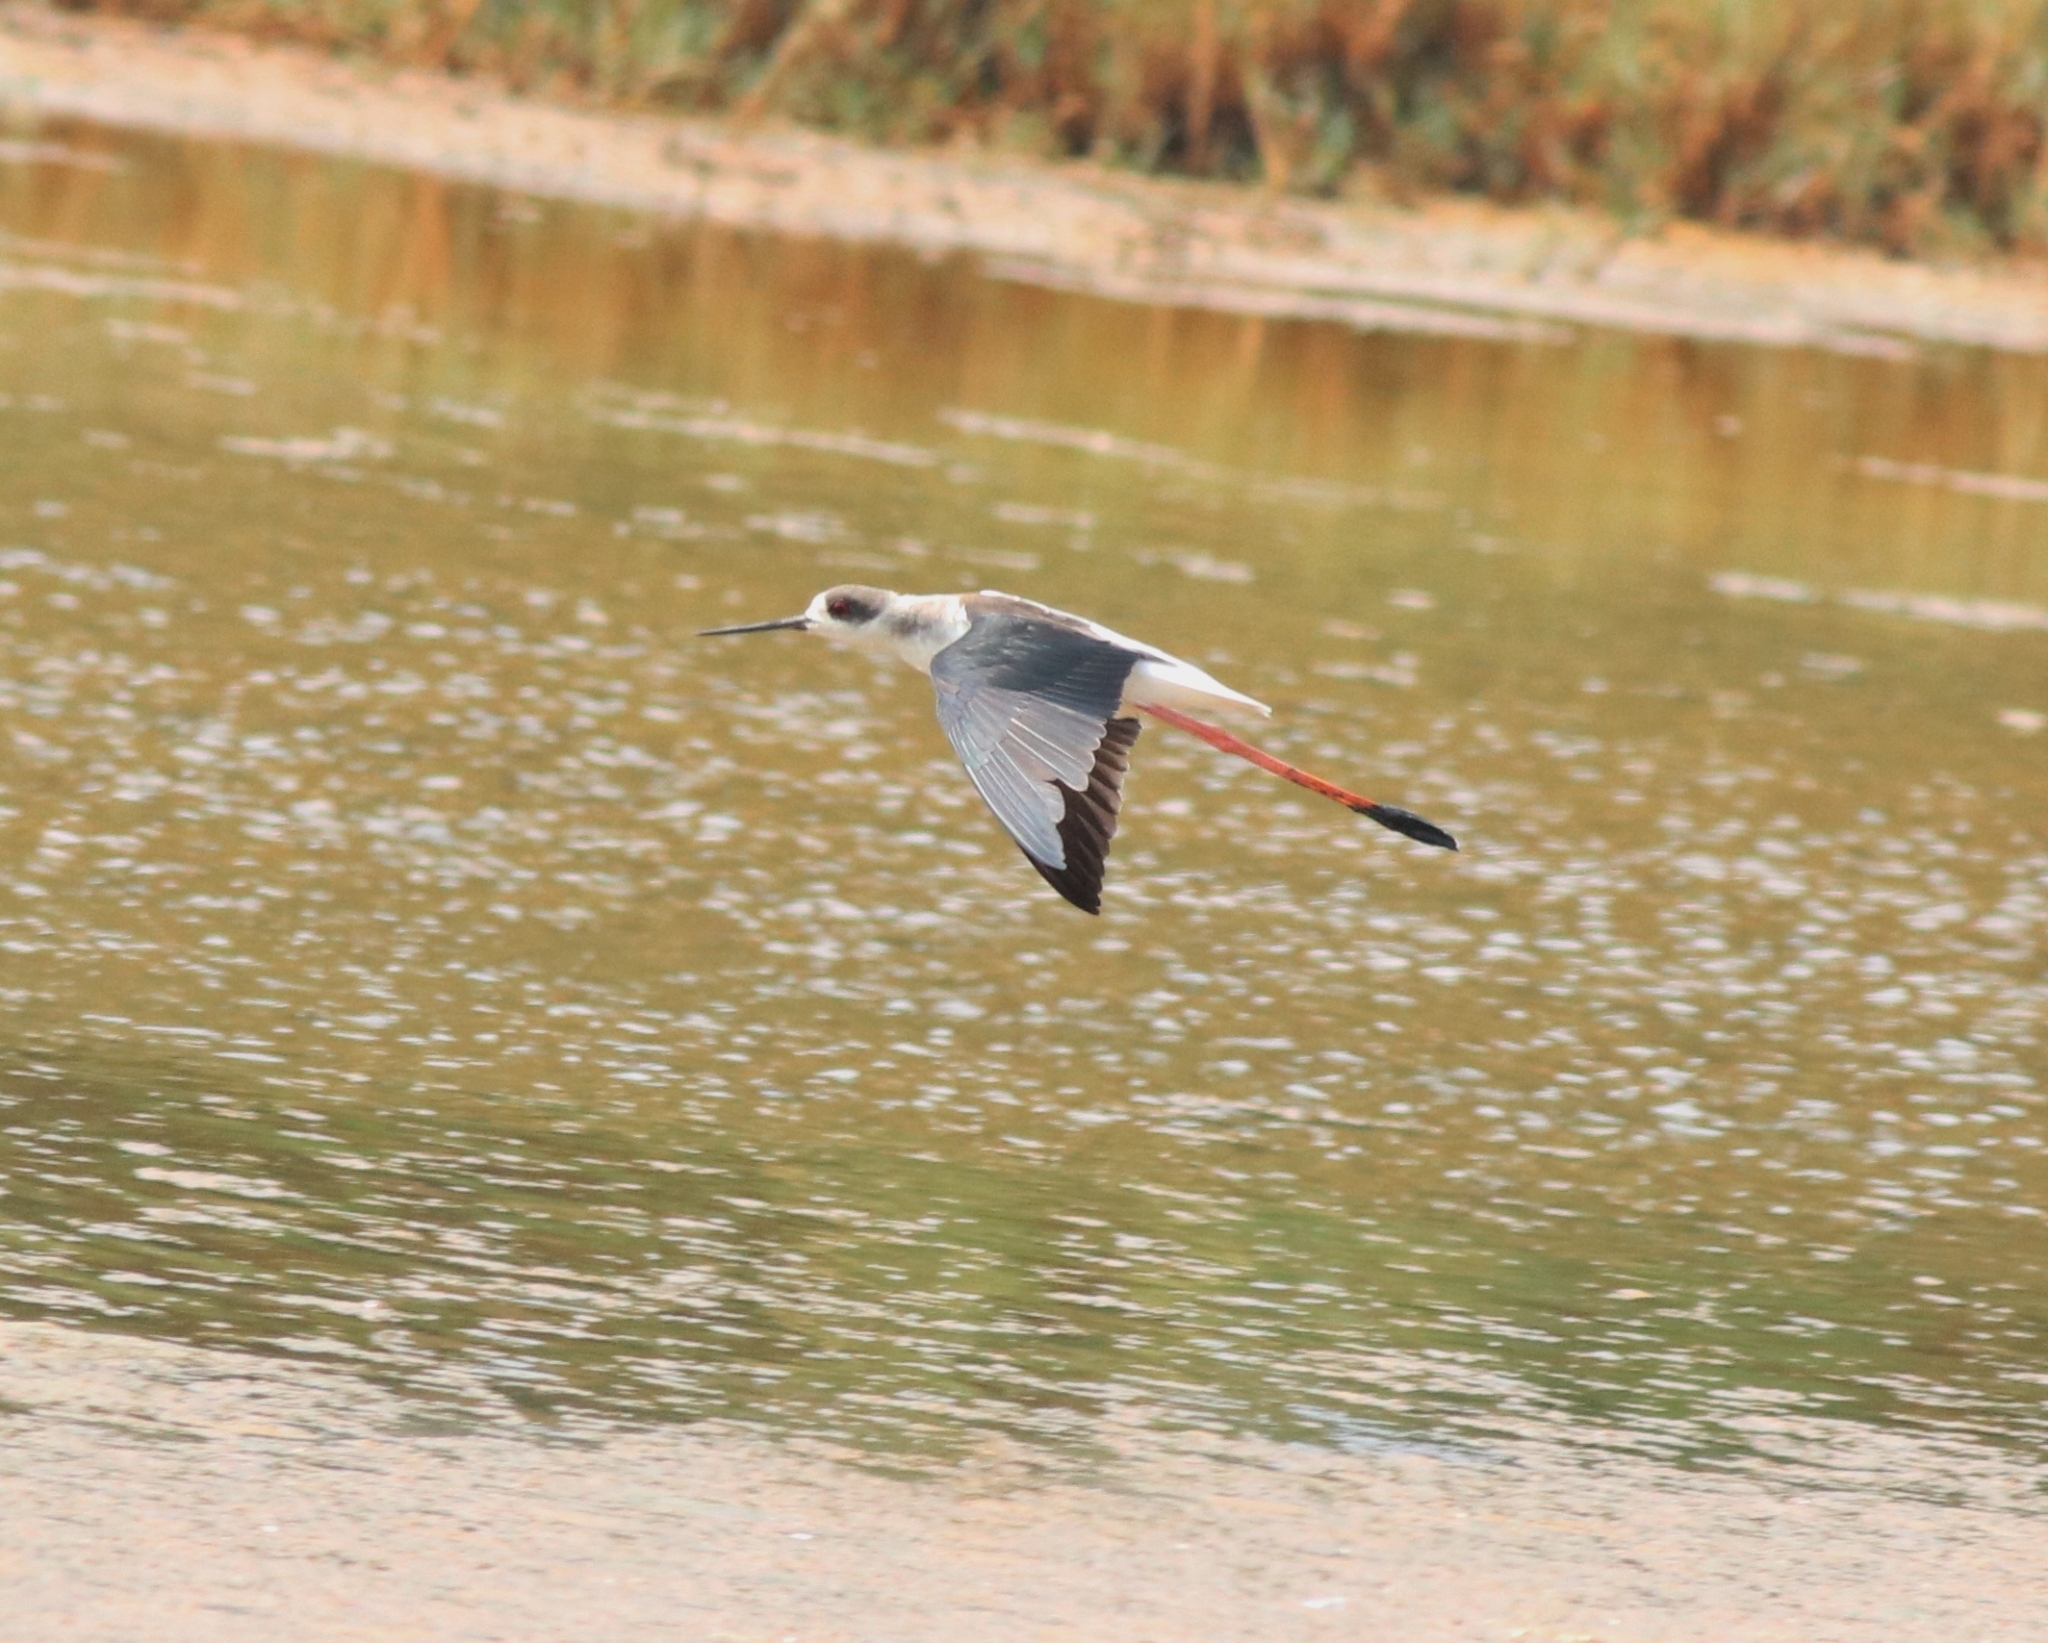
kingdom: Animalia
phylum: Chordata
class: Aves
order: Charadriiformes
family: Recurvirostridae
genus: Himantopus
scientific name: Himantopus himantopus
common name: Black-winged stilt
